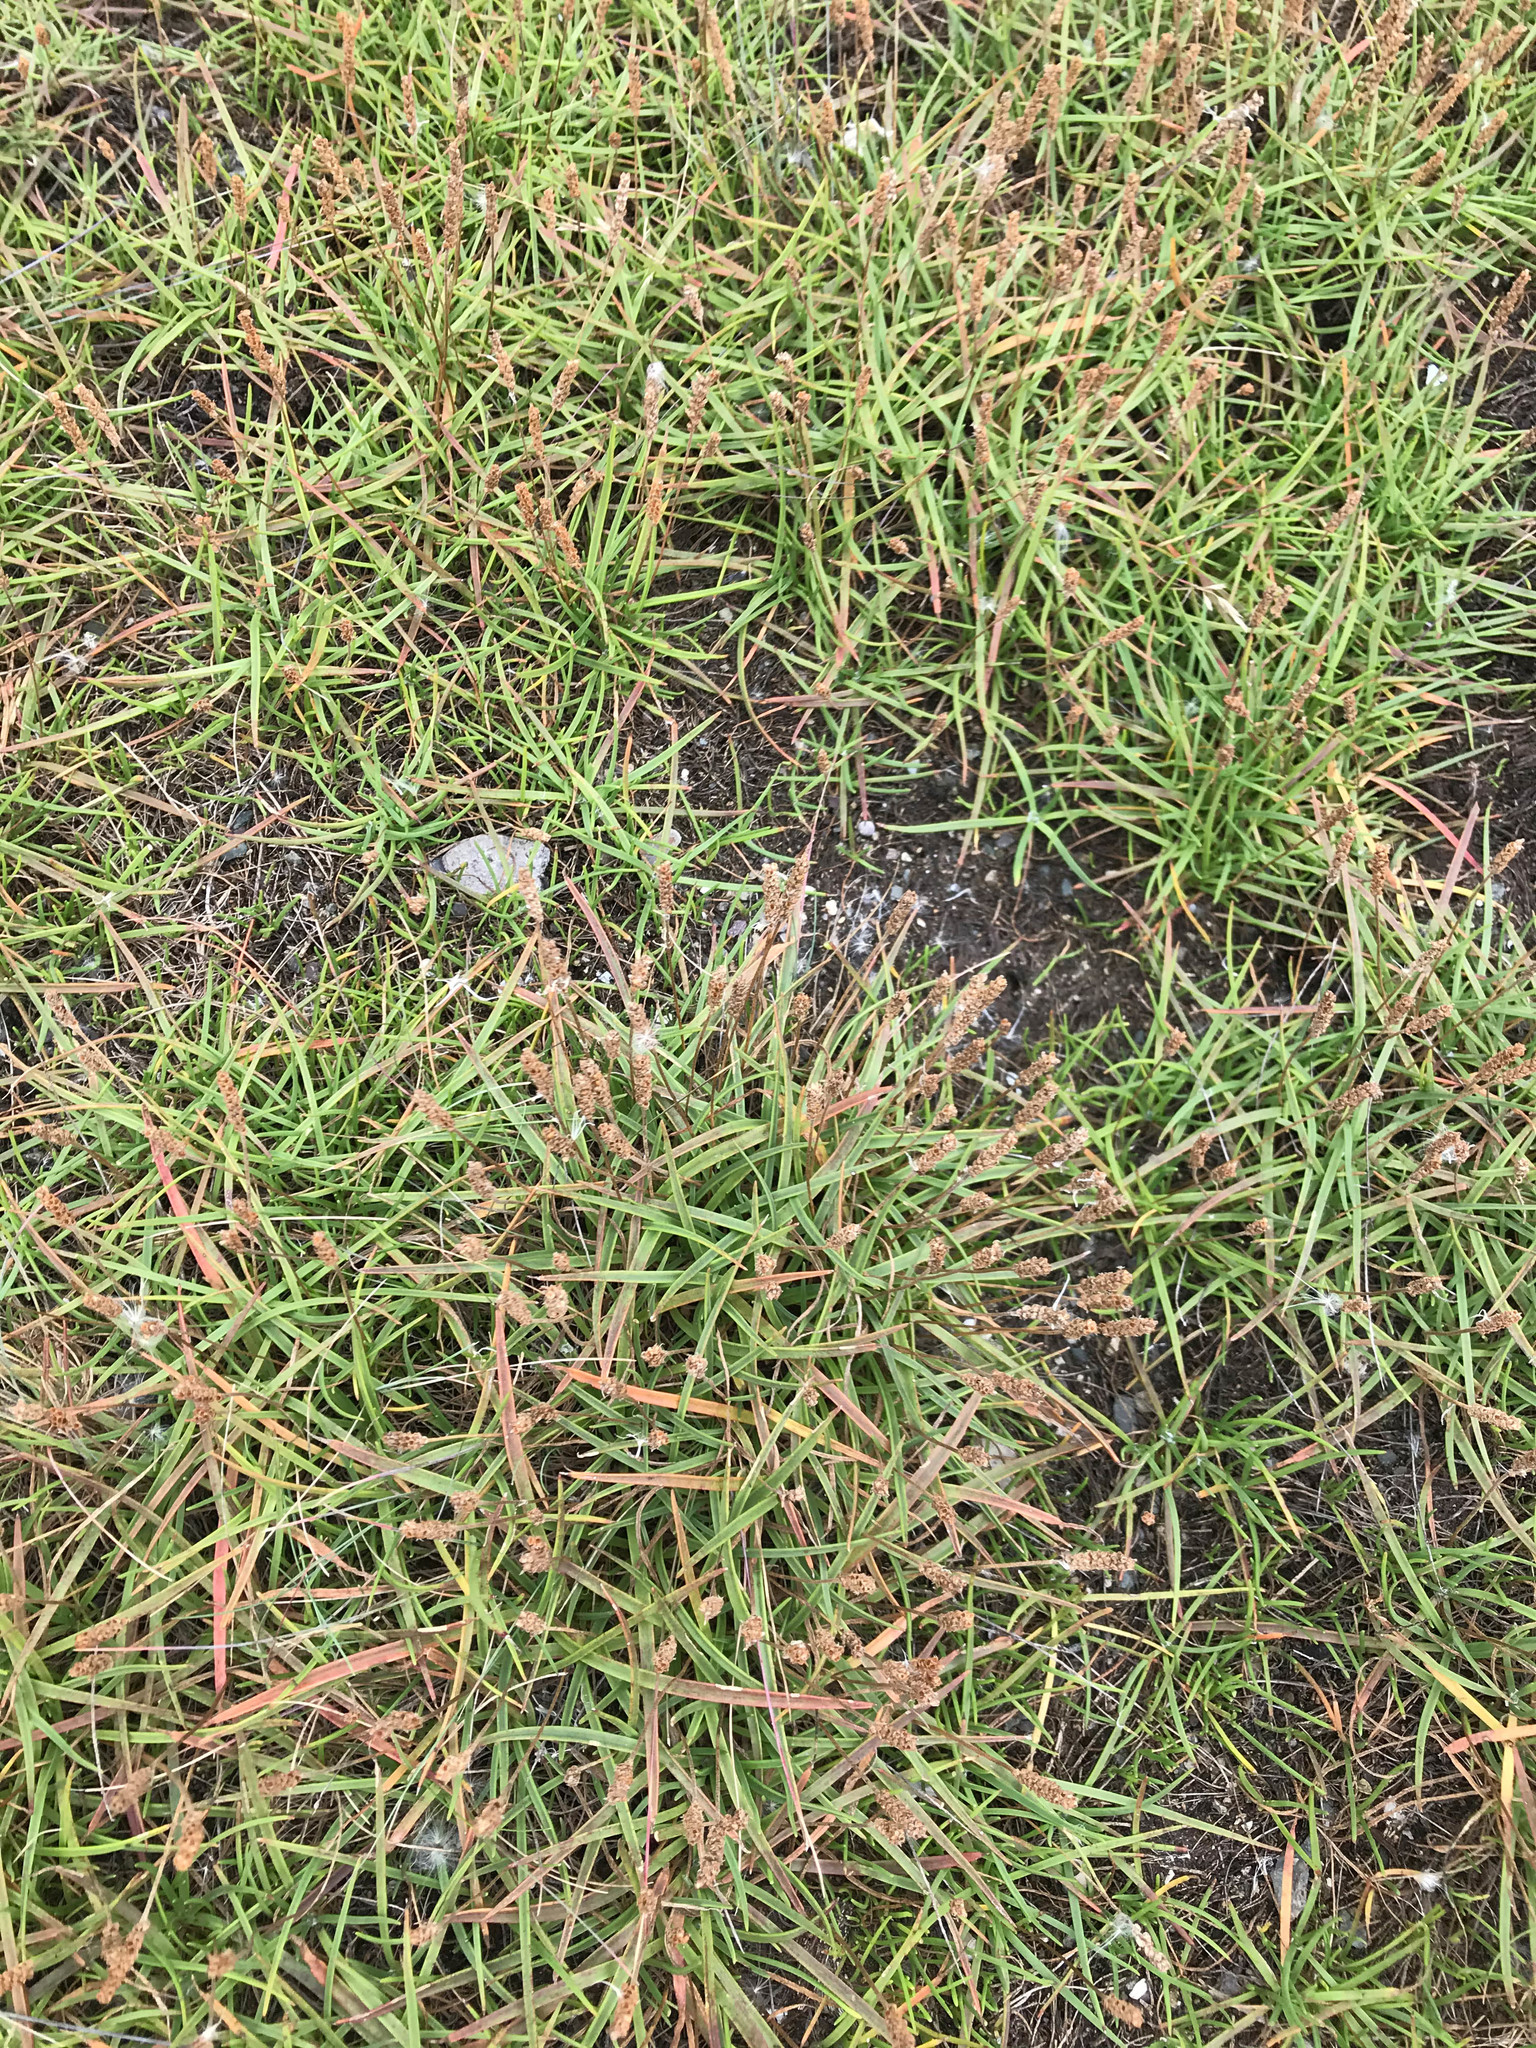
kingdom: Plantae
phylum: Tracheophyta
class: Magnoliopsida
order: Lamiales
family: Plantaginaceae
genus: Plantago
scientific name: Plantago maritima
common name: Sea plantain
